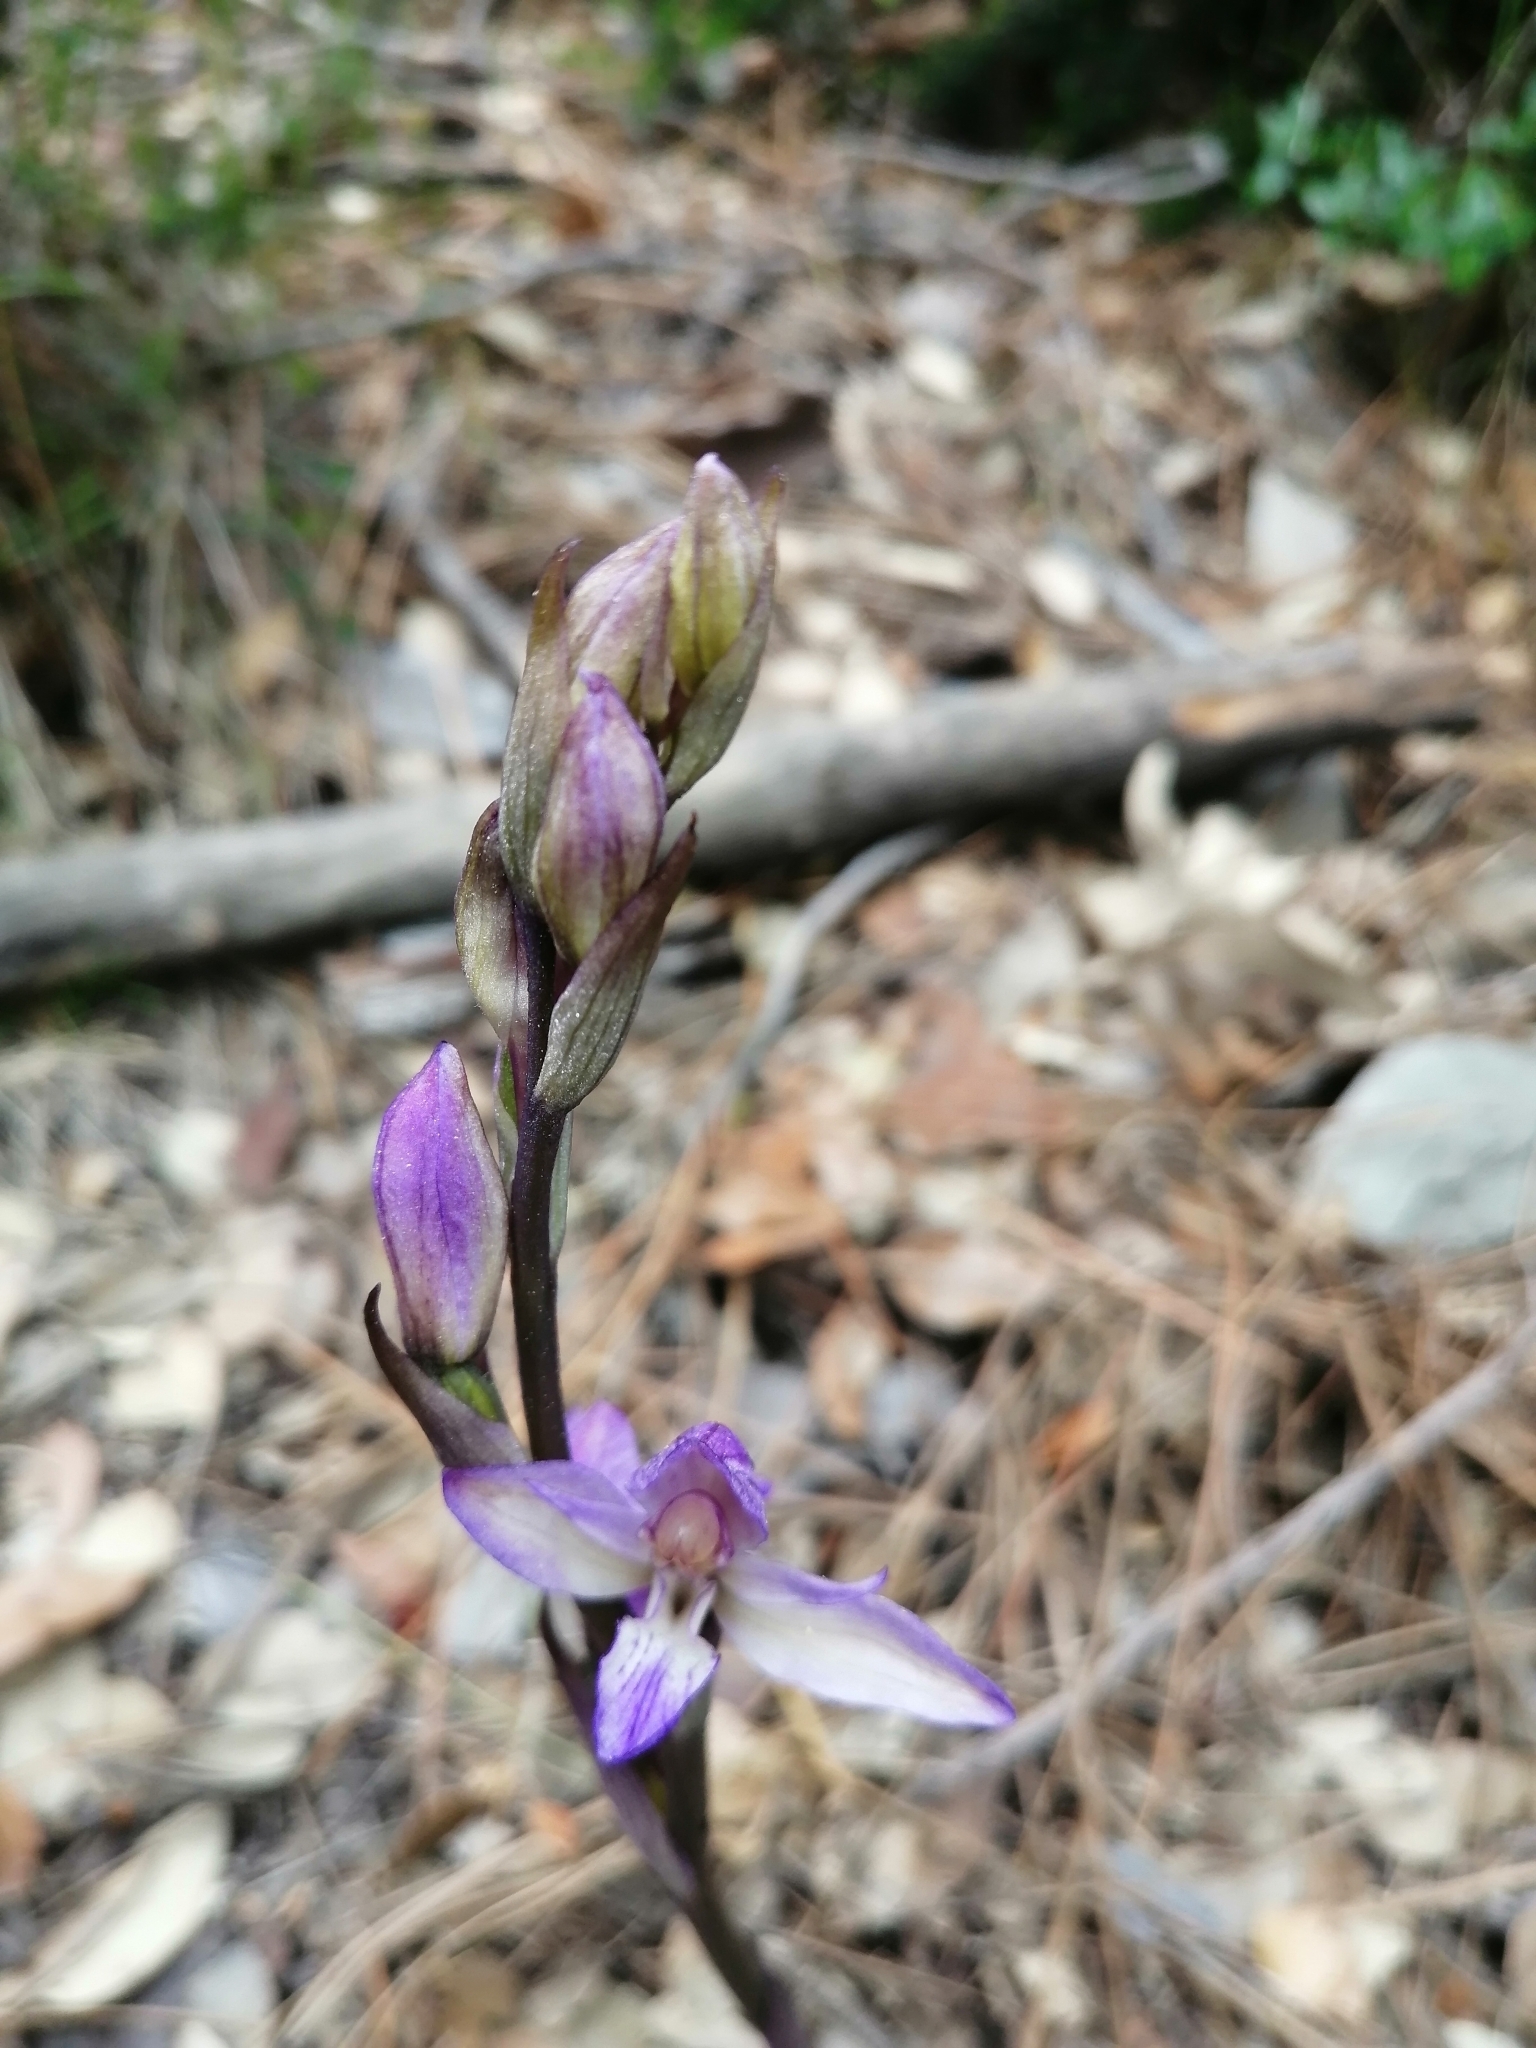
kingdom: Plantae
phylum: Tracheophyta
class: Liliopsida
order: Asparagales
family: Orchidaceae
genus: Limodorum
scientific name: Limodorum abortivum
